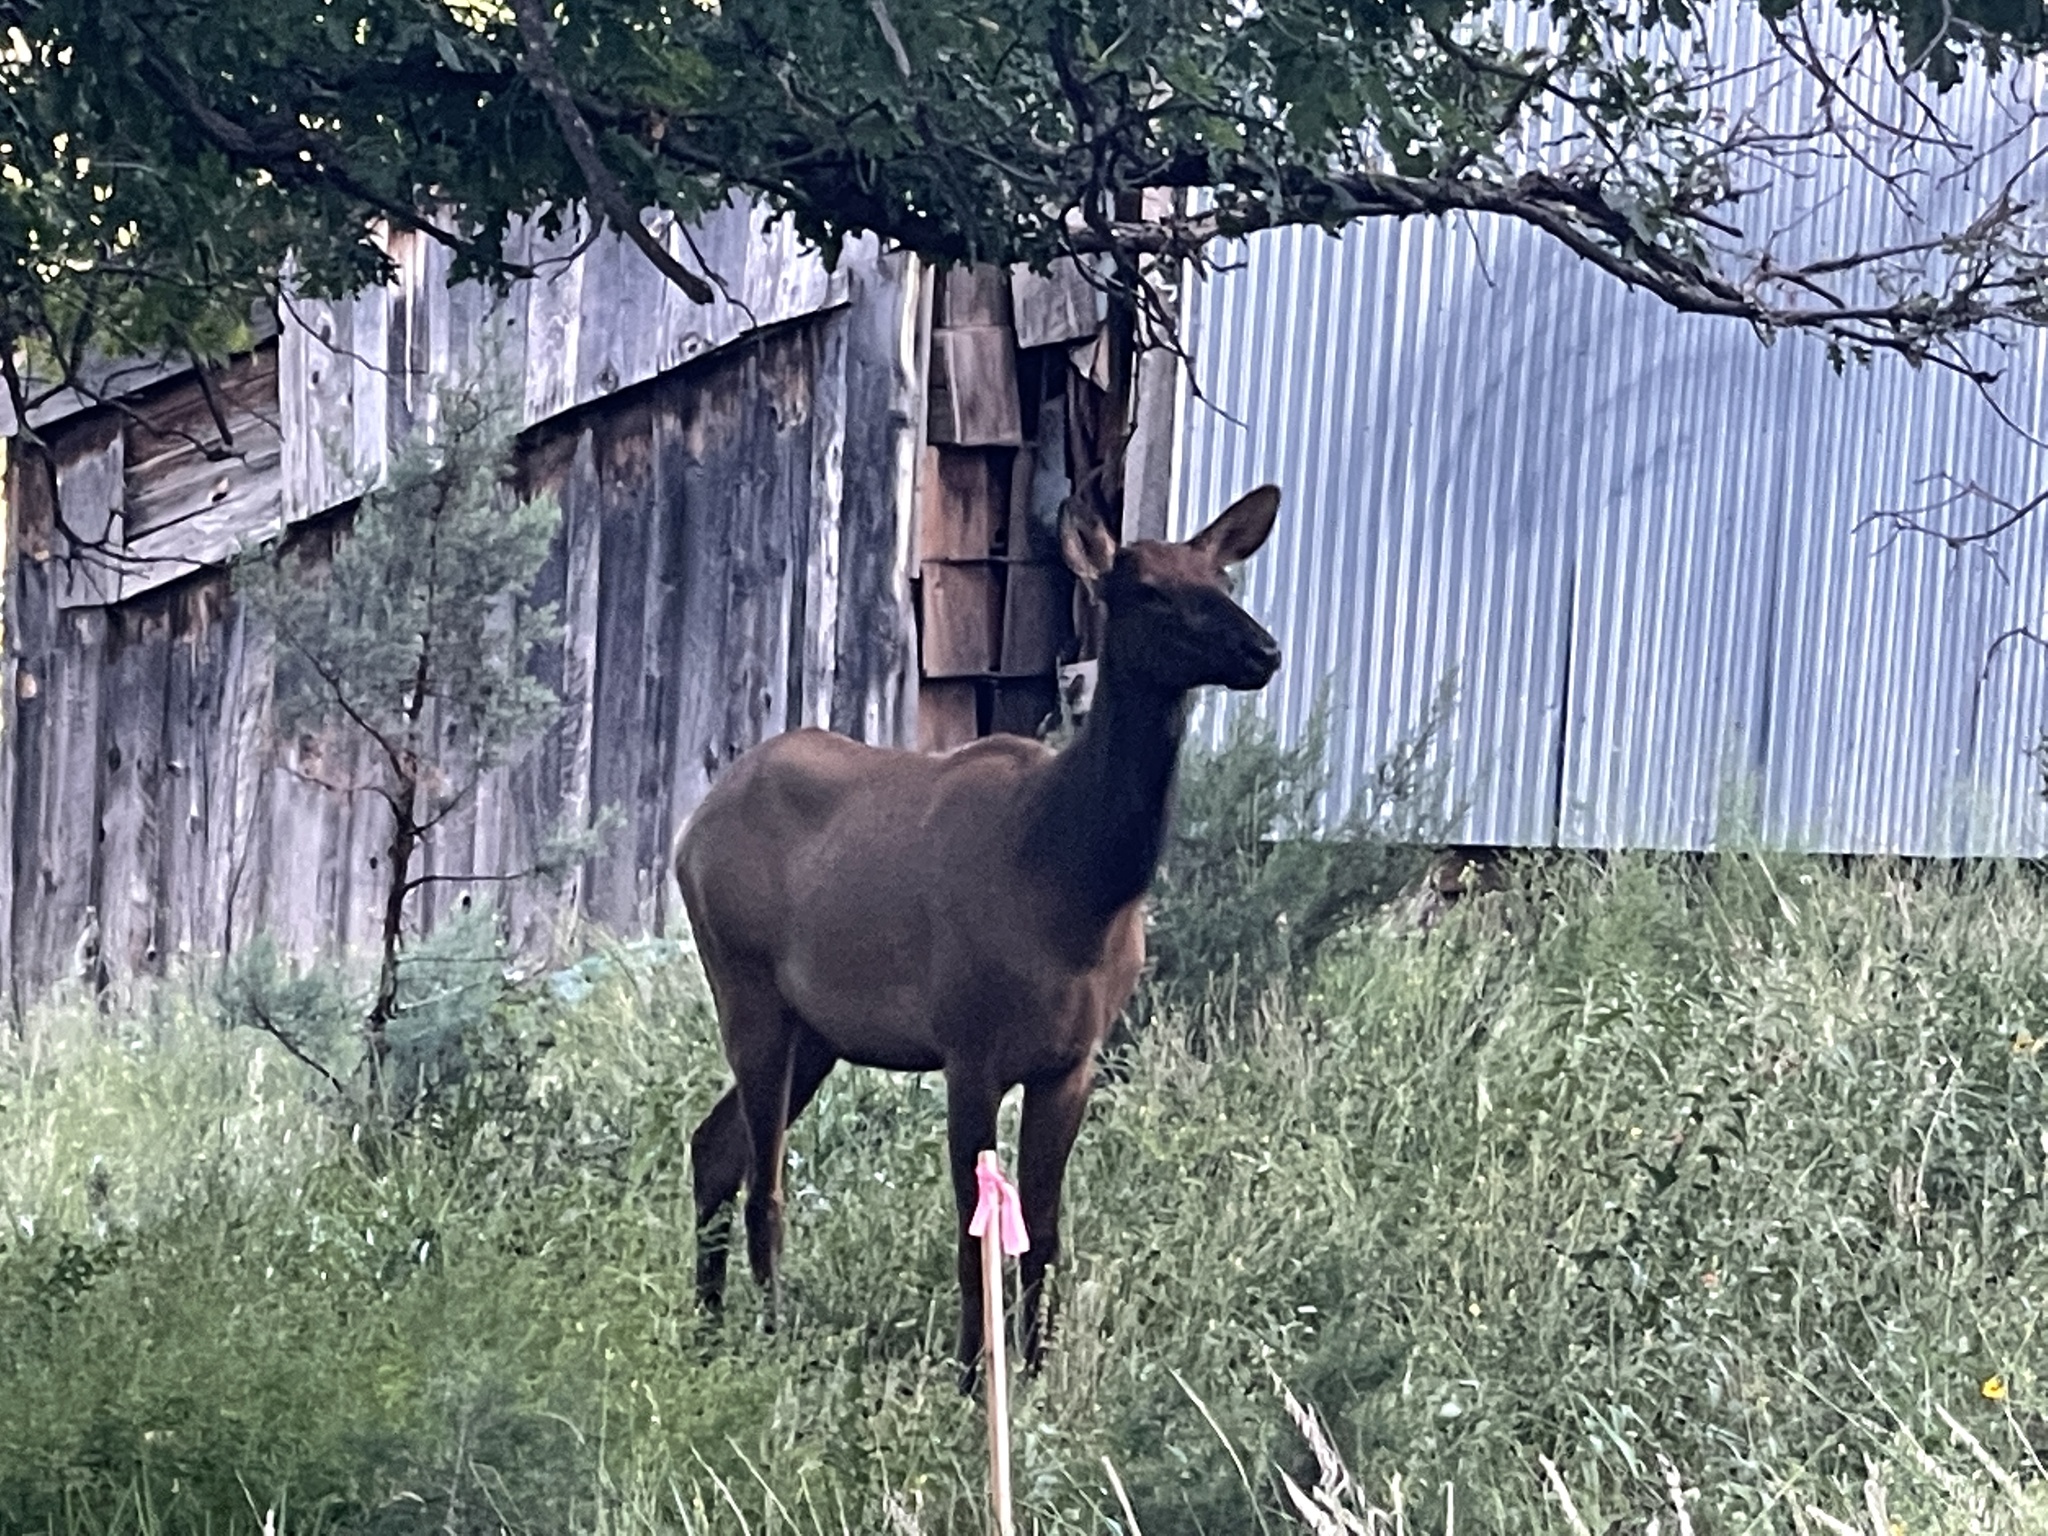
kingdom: Animalia
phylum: Chordata
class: Mammalia
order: Artiodactyla
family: Cervidae
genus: Cervus
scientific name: Cervus elaphus
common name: Red deer
